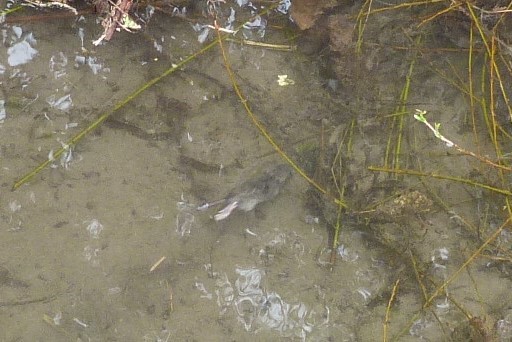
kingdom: Animalia
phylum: Chordata
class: Mammalia
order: Rodentia
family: Muridae
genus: Mus
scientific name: Mus musculus
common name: House mouse
